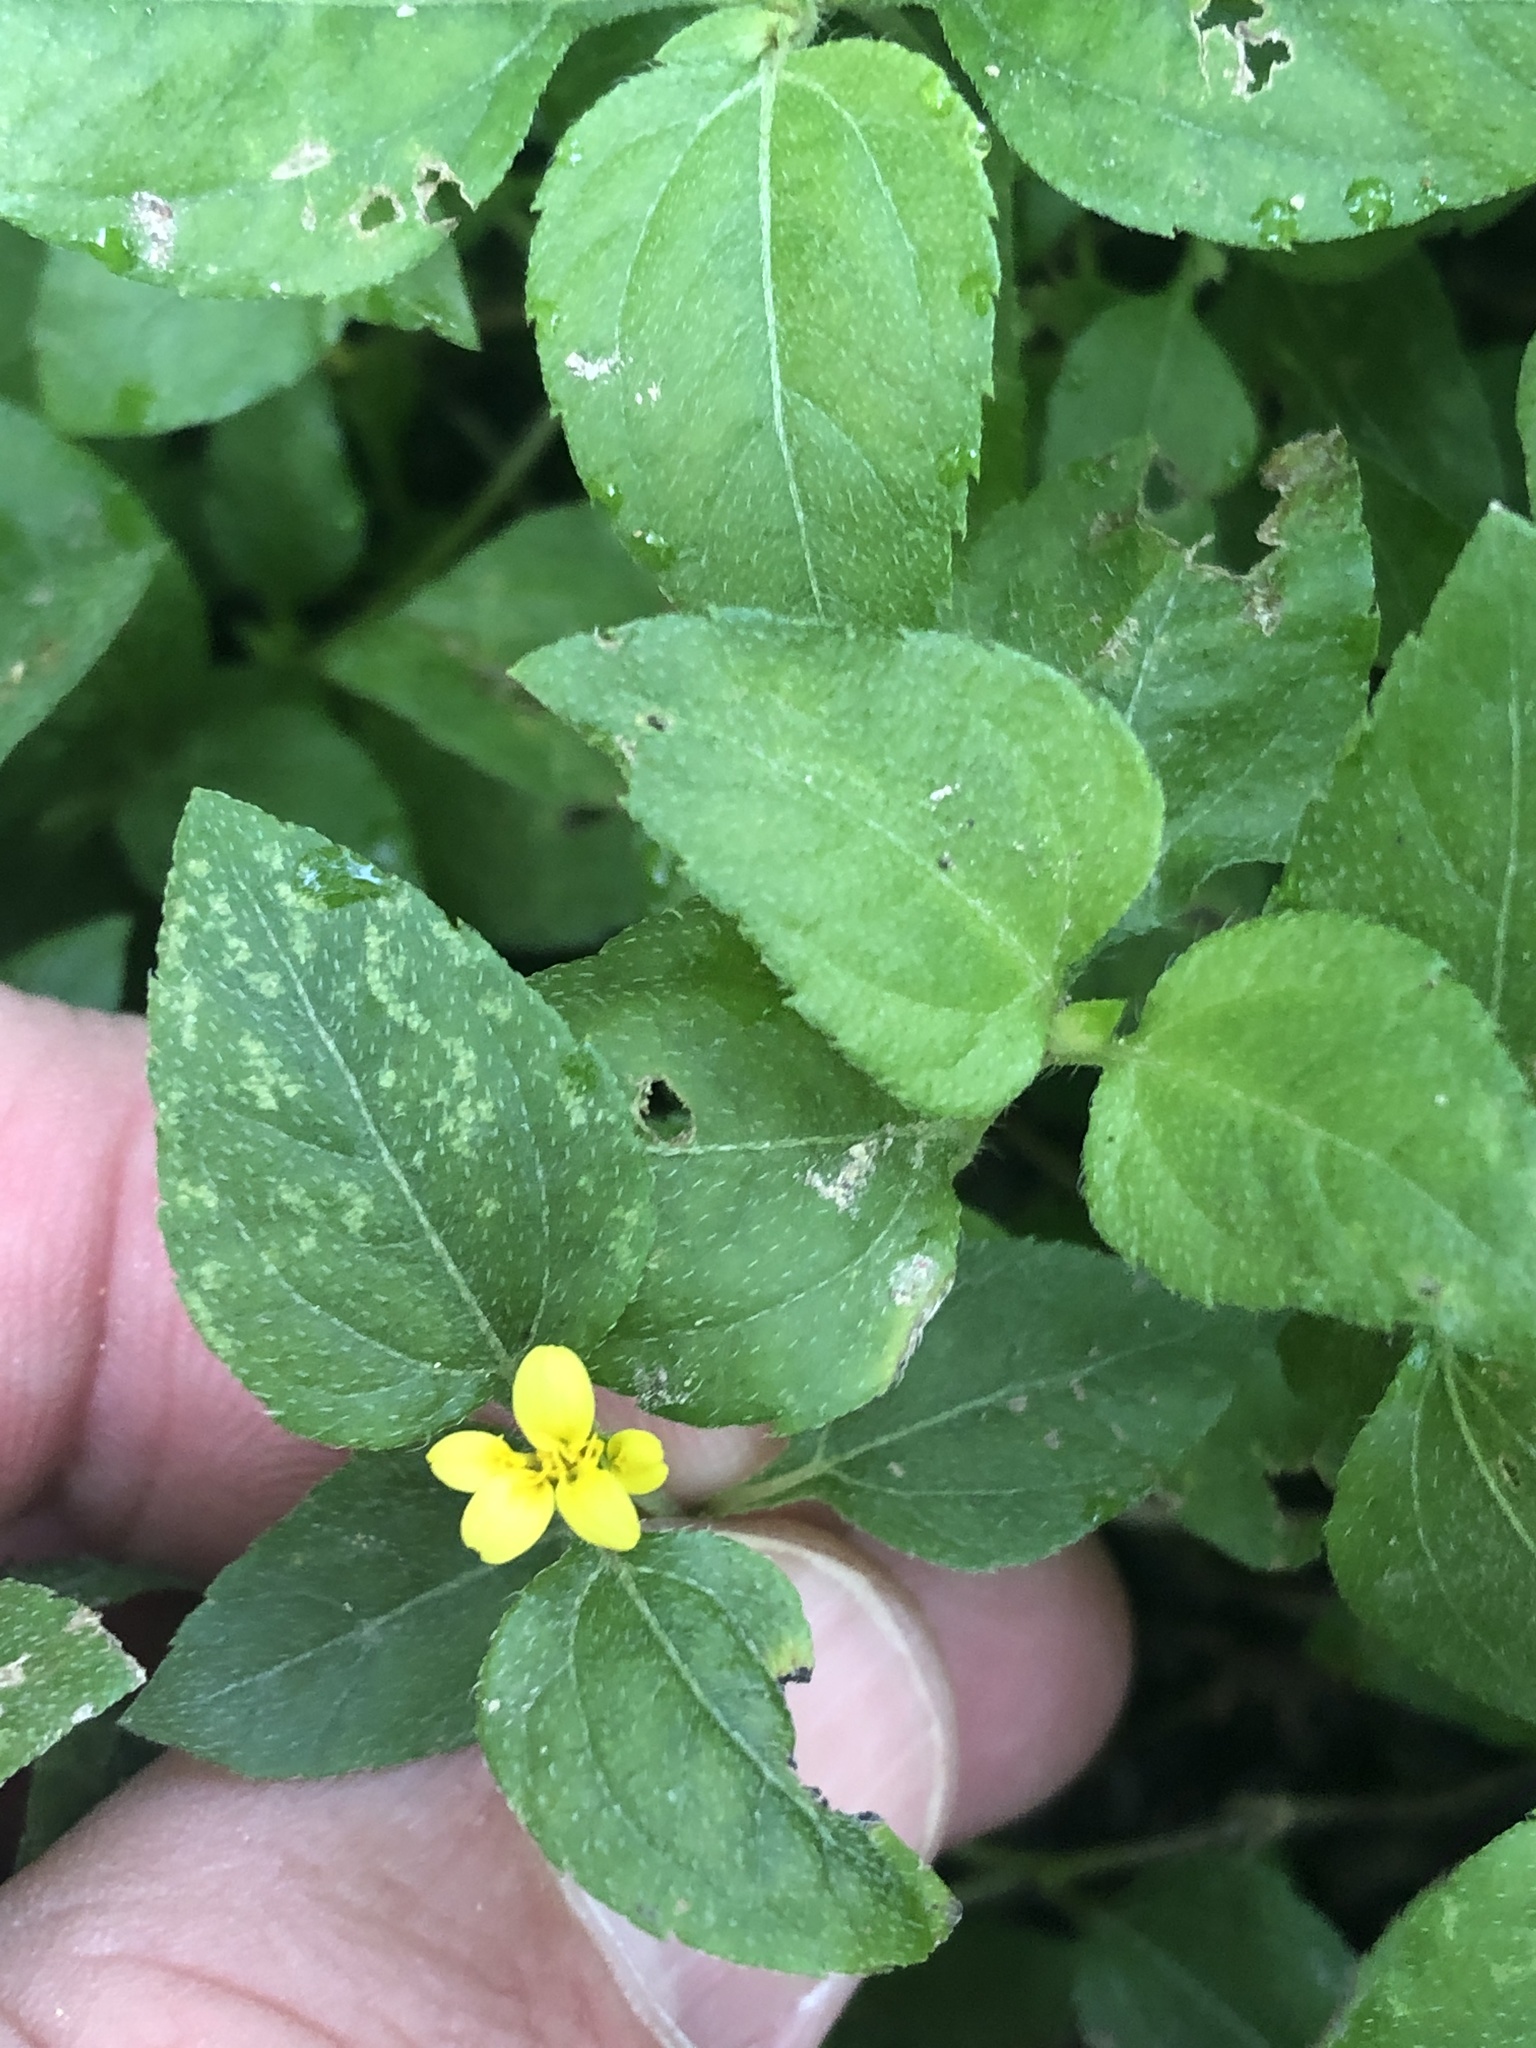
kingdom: Plantae
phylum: Tracheophyta
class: Magnoliopsida
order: Asterales
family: Asteraceae
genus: Calyptocarpus
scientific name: Calyptocarpus vialis
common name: Straggler daisy
